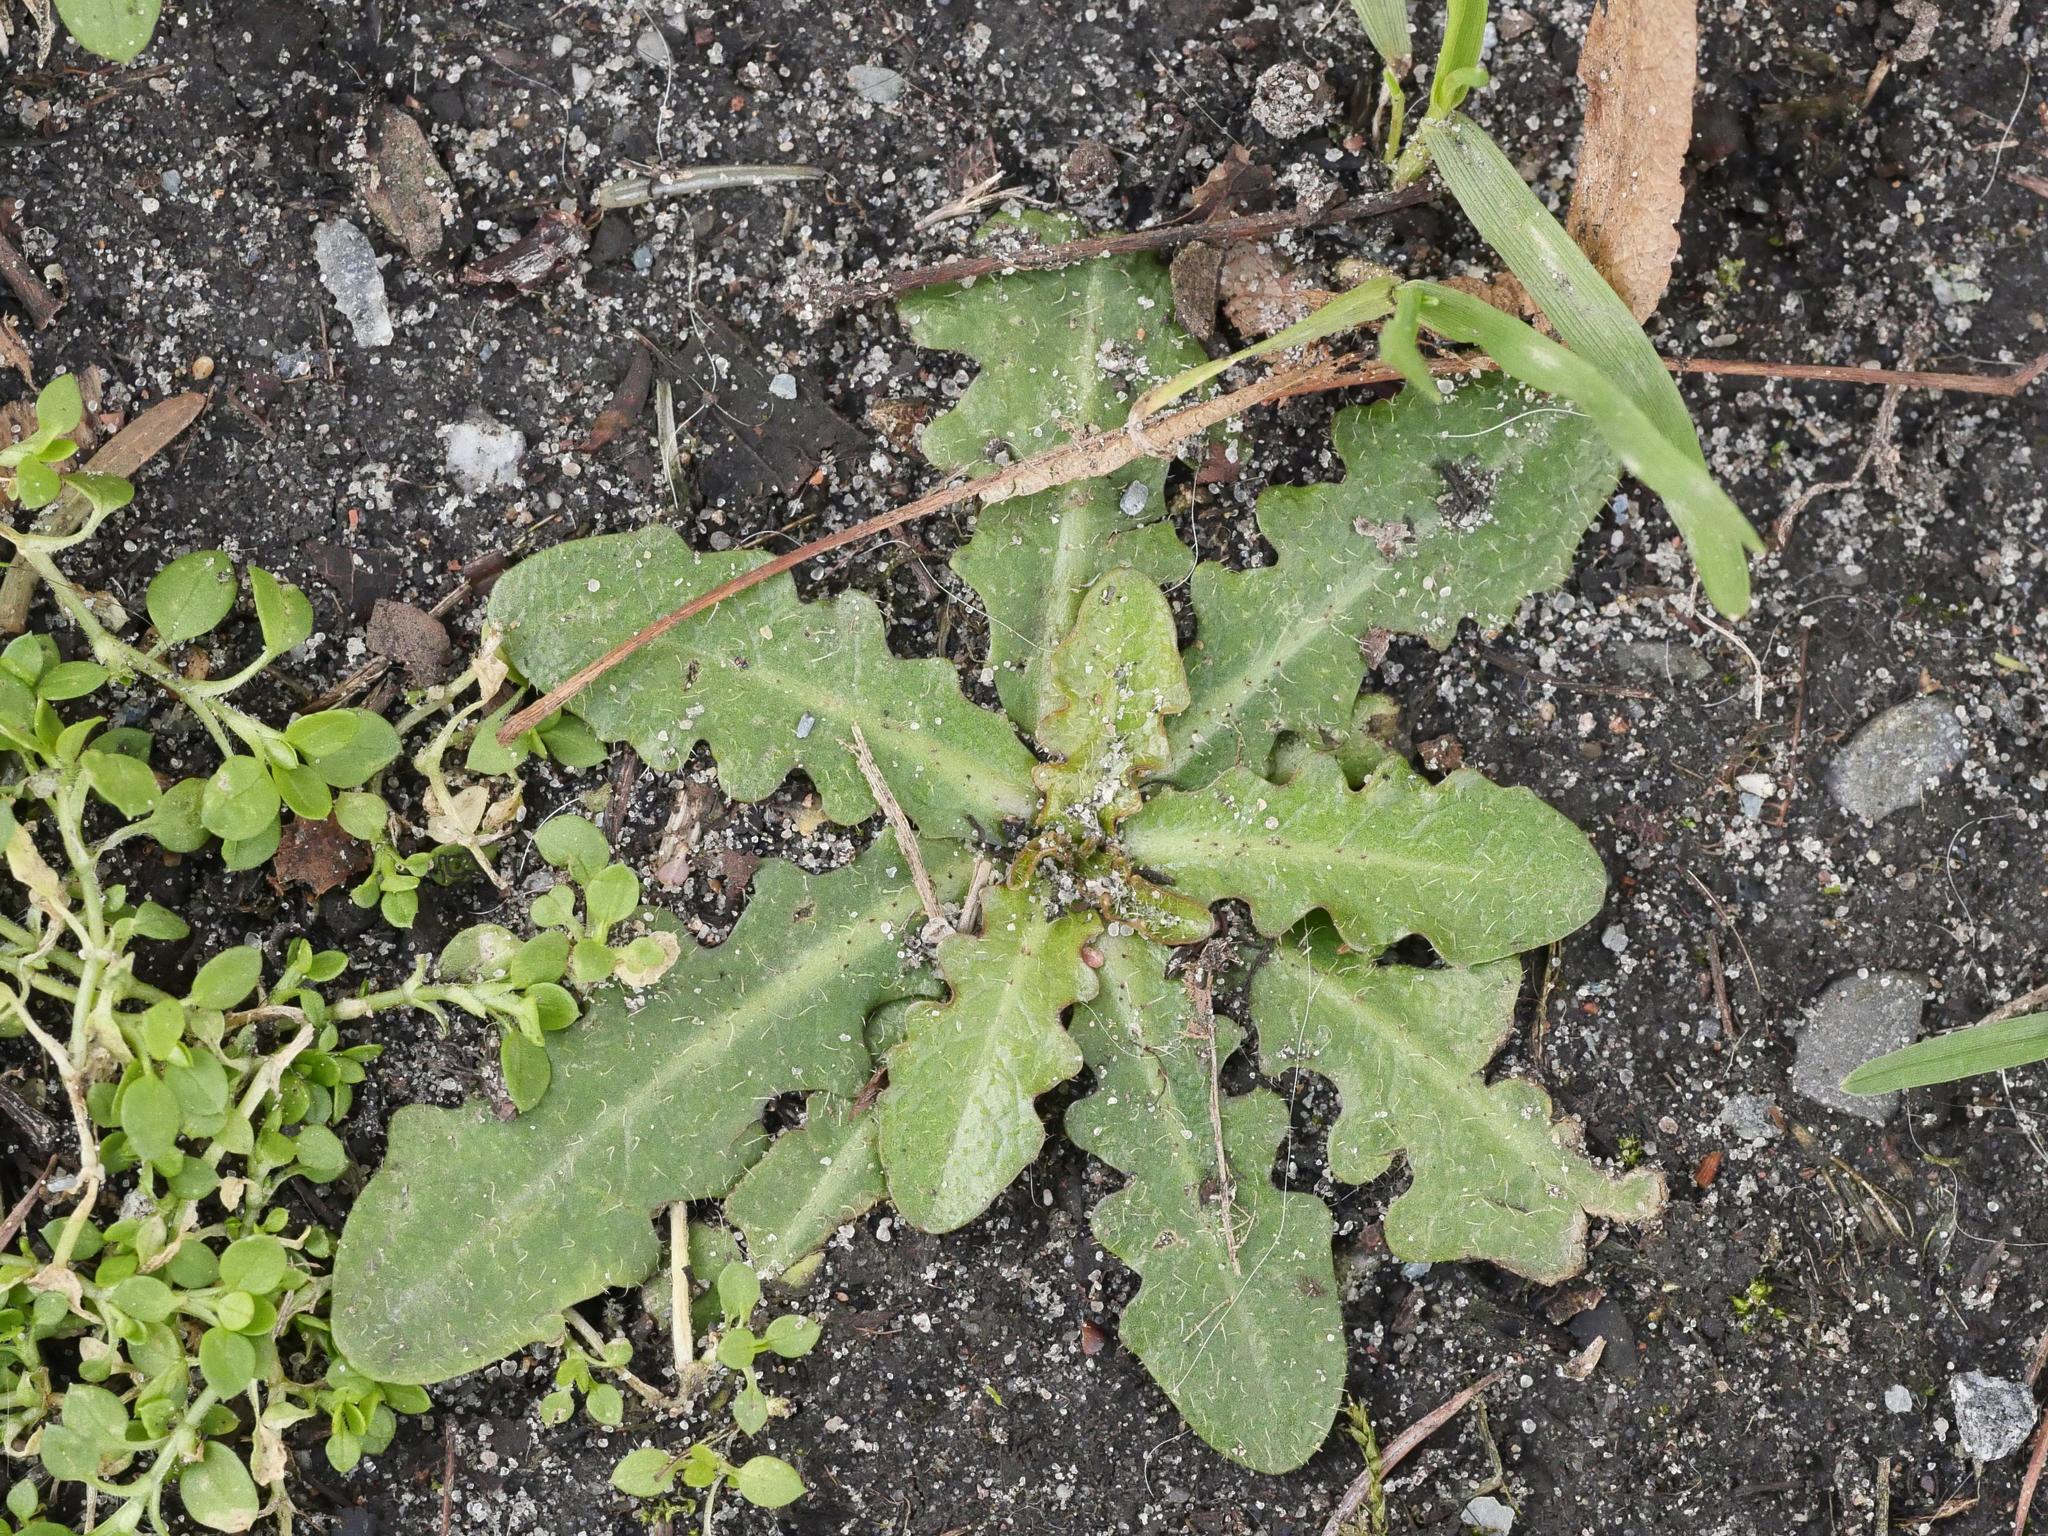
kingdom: Plantae
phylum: Tracheophyta
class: Magnoliopsida
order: Asterales
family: Asteraceae
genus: Hypochaeris
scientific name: Hypochaeris radicata
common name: Flatweed
